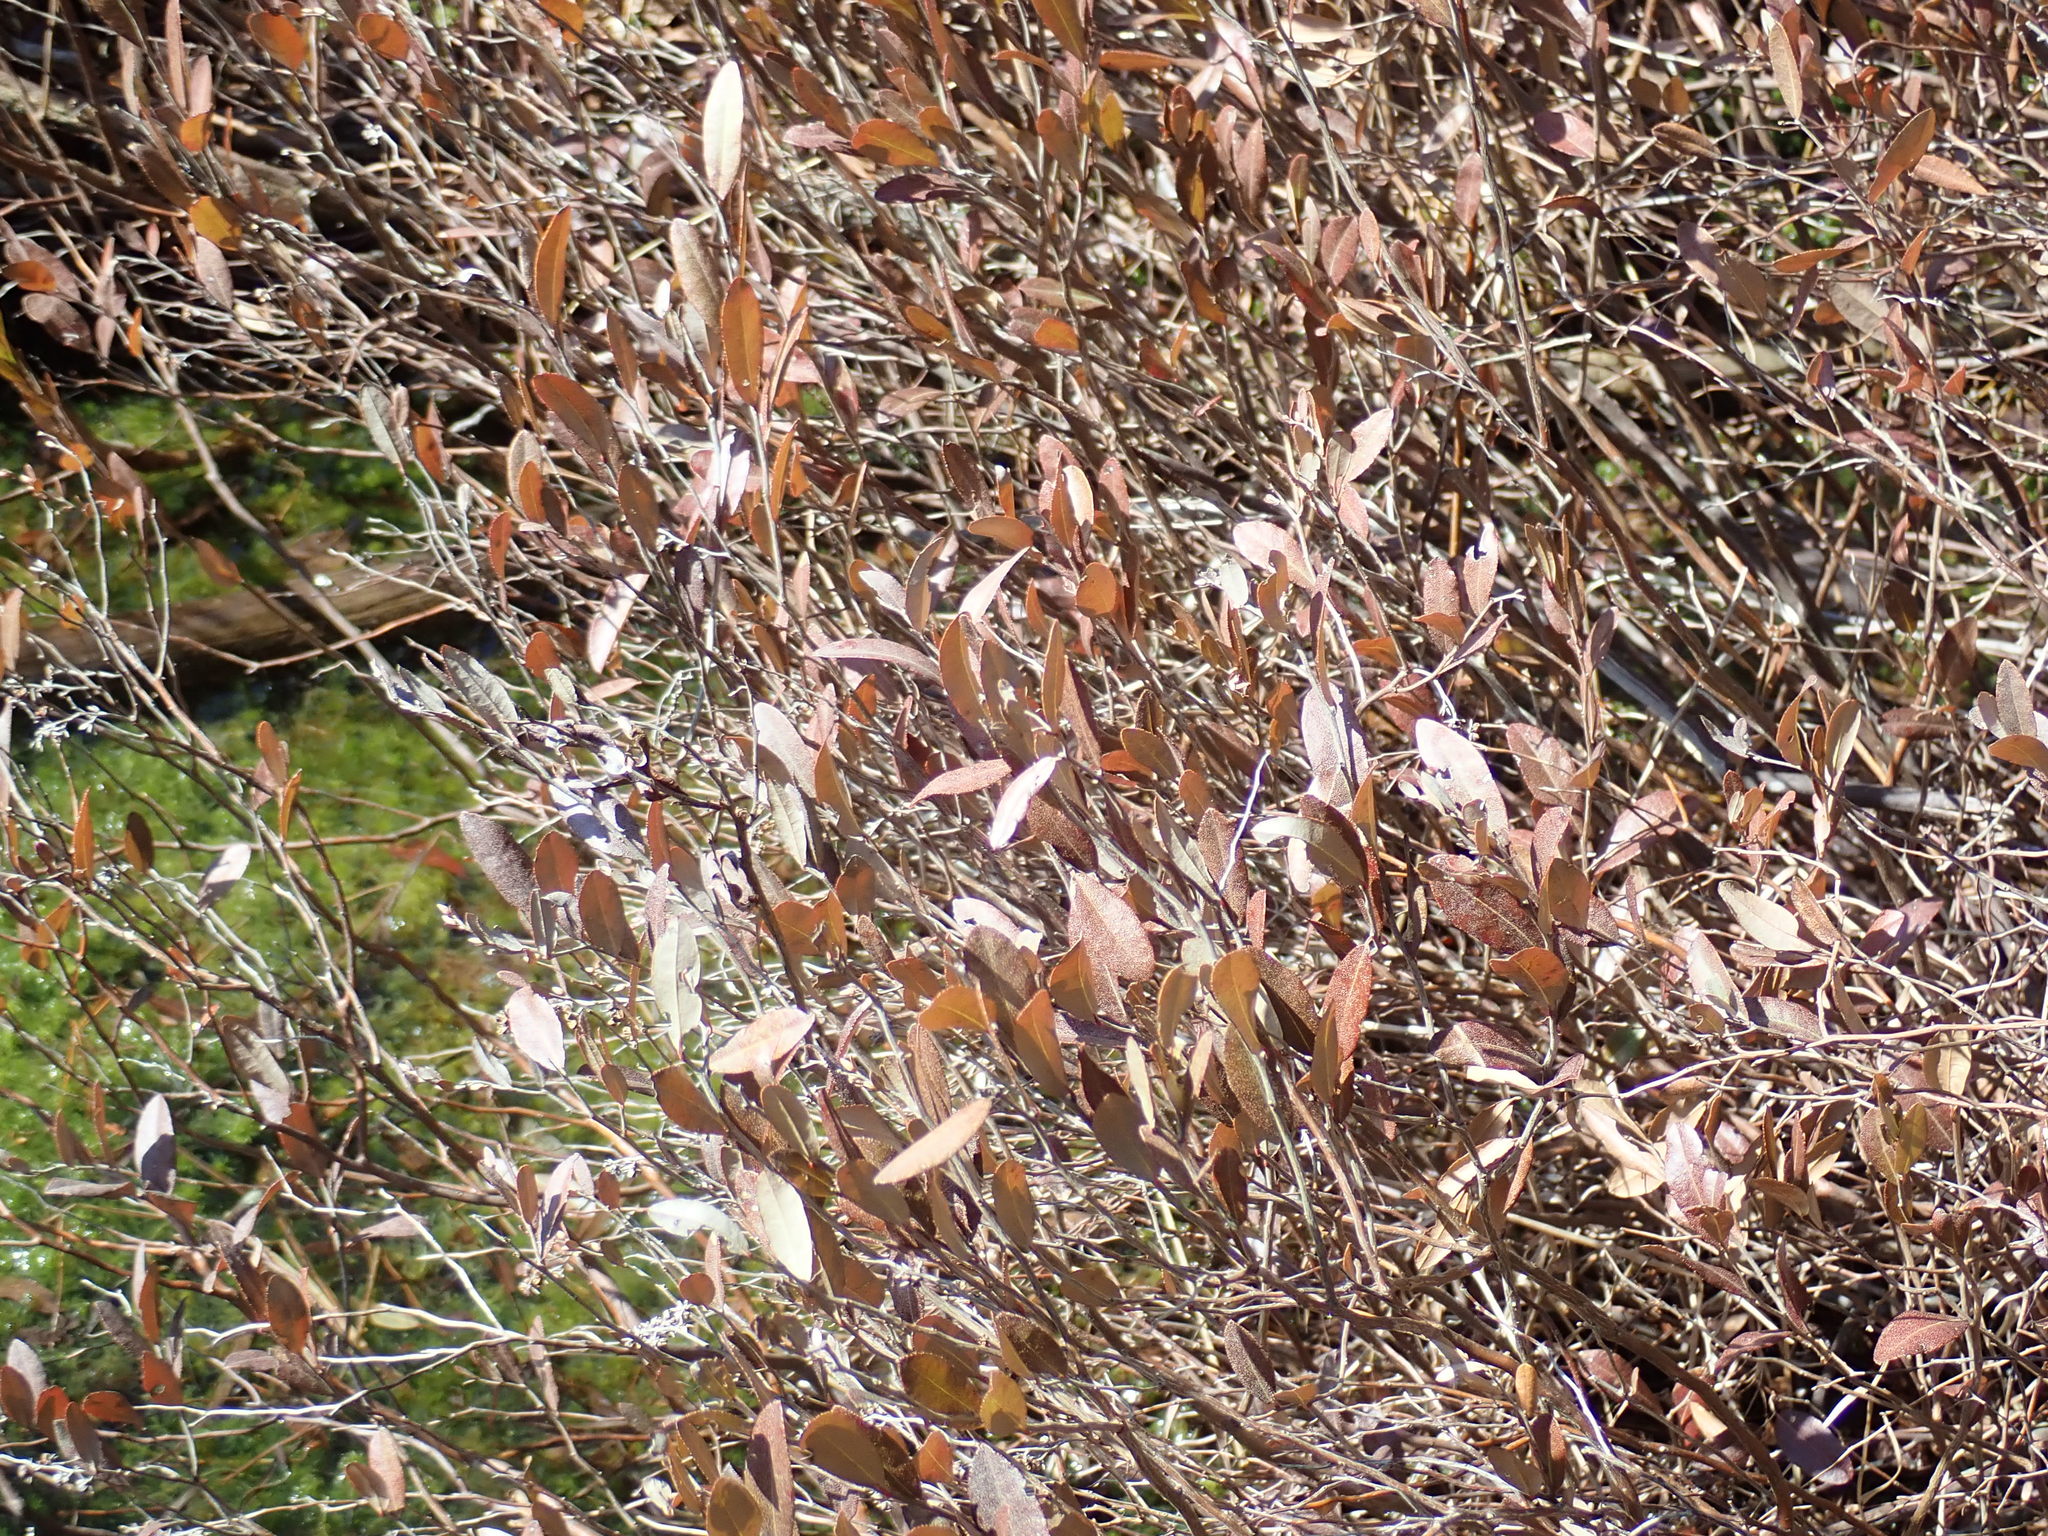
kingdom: Plantae
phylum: Tracheophyta
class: Magnoliopsida
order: Ericales
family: Ericaceae
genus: Chamaedaphne
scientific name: Chamaedaphne calyculata
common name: Leatherleaf
